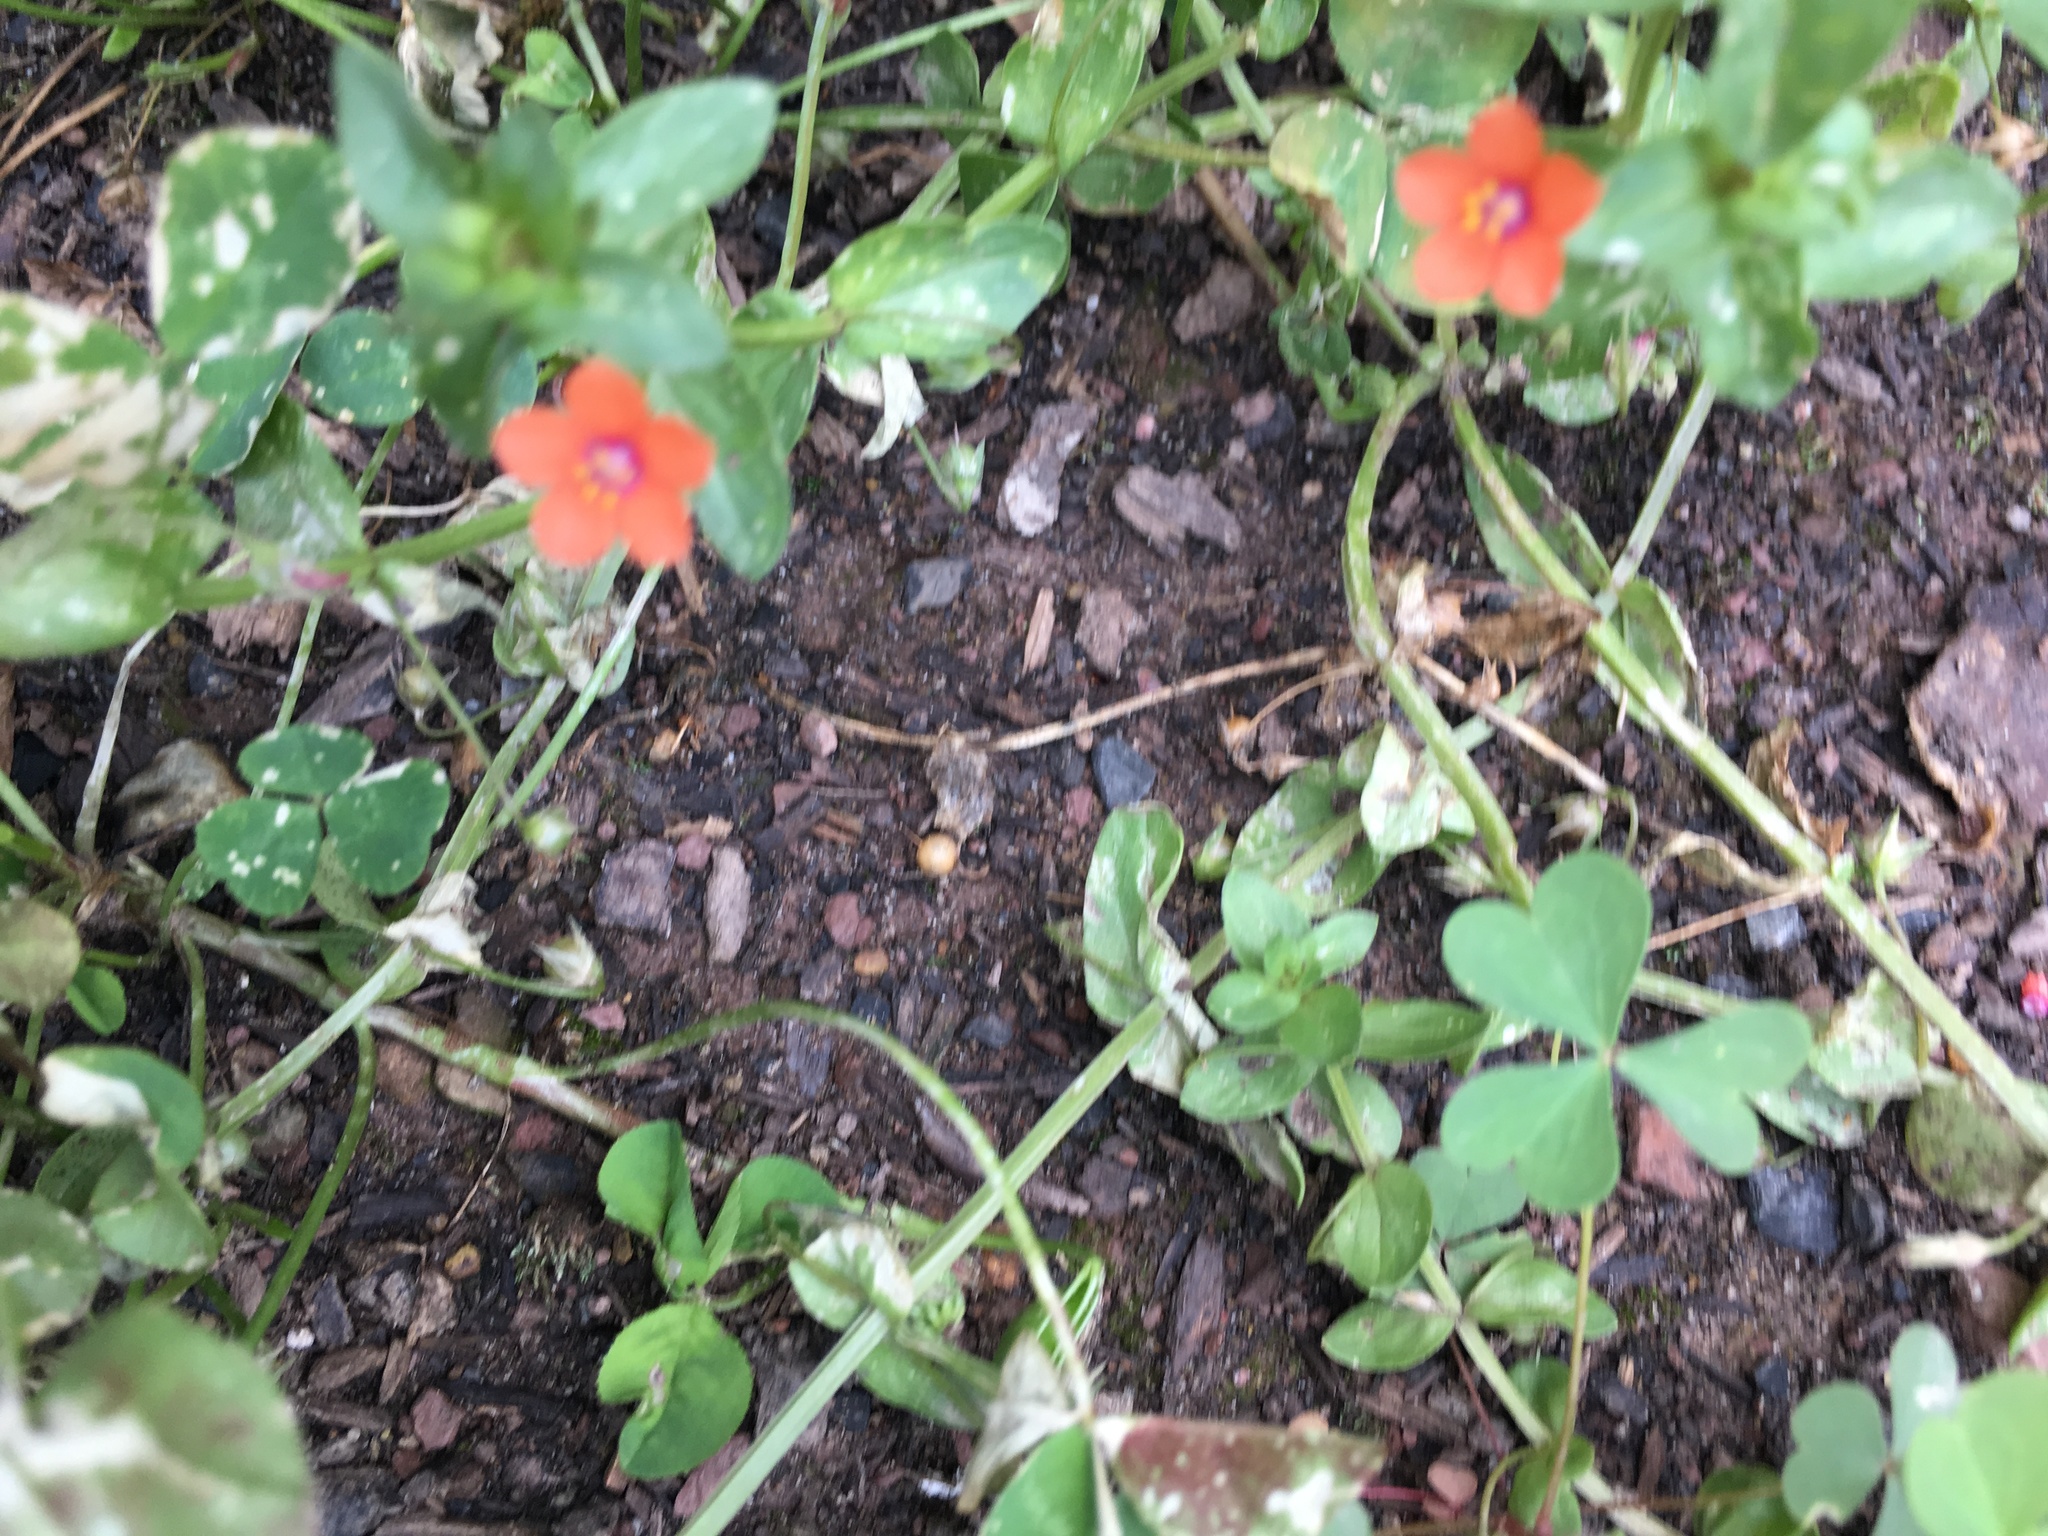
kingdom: Plantae
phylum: Tracheophyta
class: Magnoliopsida
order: Ericales
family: Primulaceae
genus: Lysimachia
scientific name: Lysimachia arvensis
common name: Scarlet pimpernel
